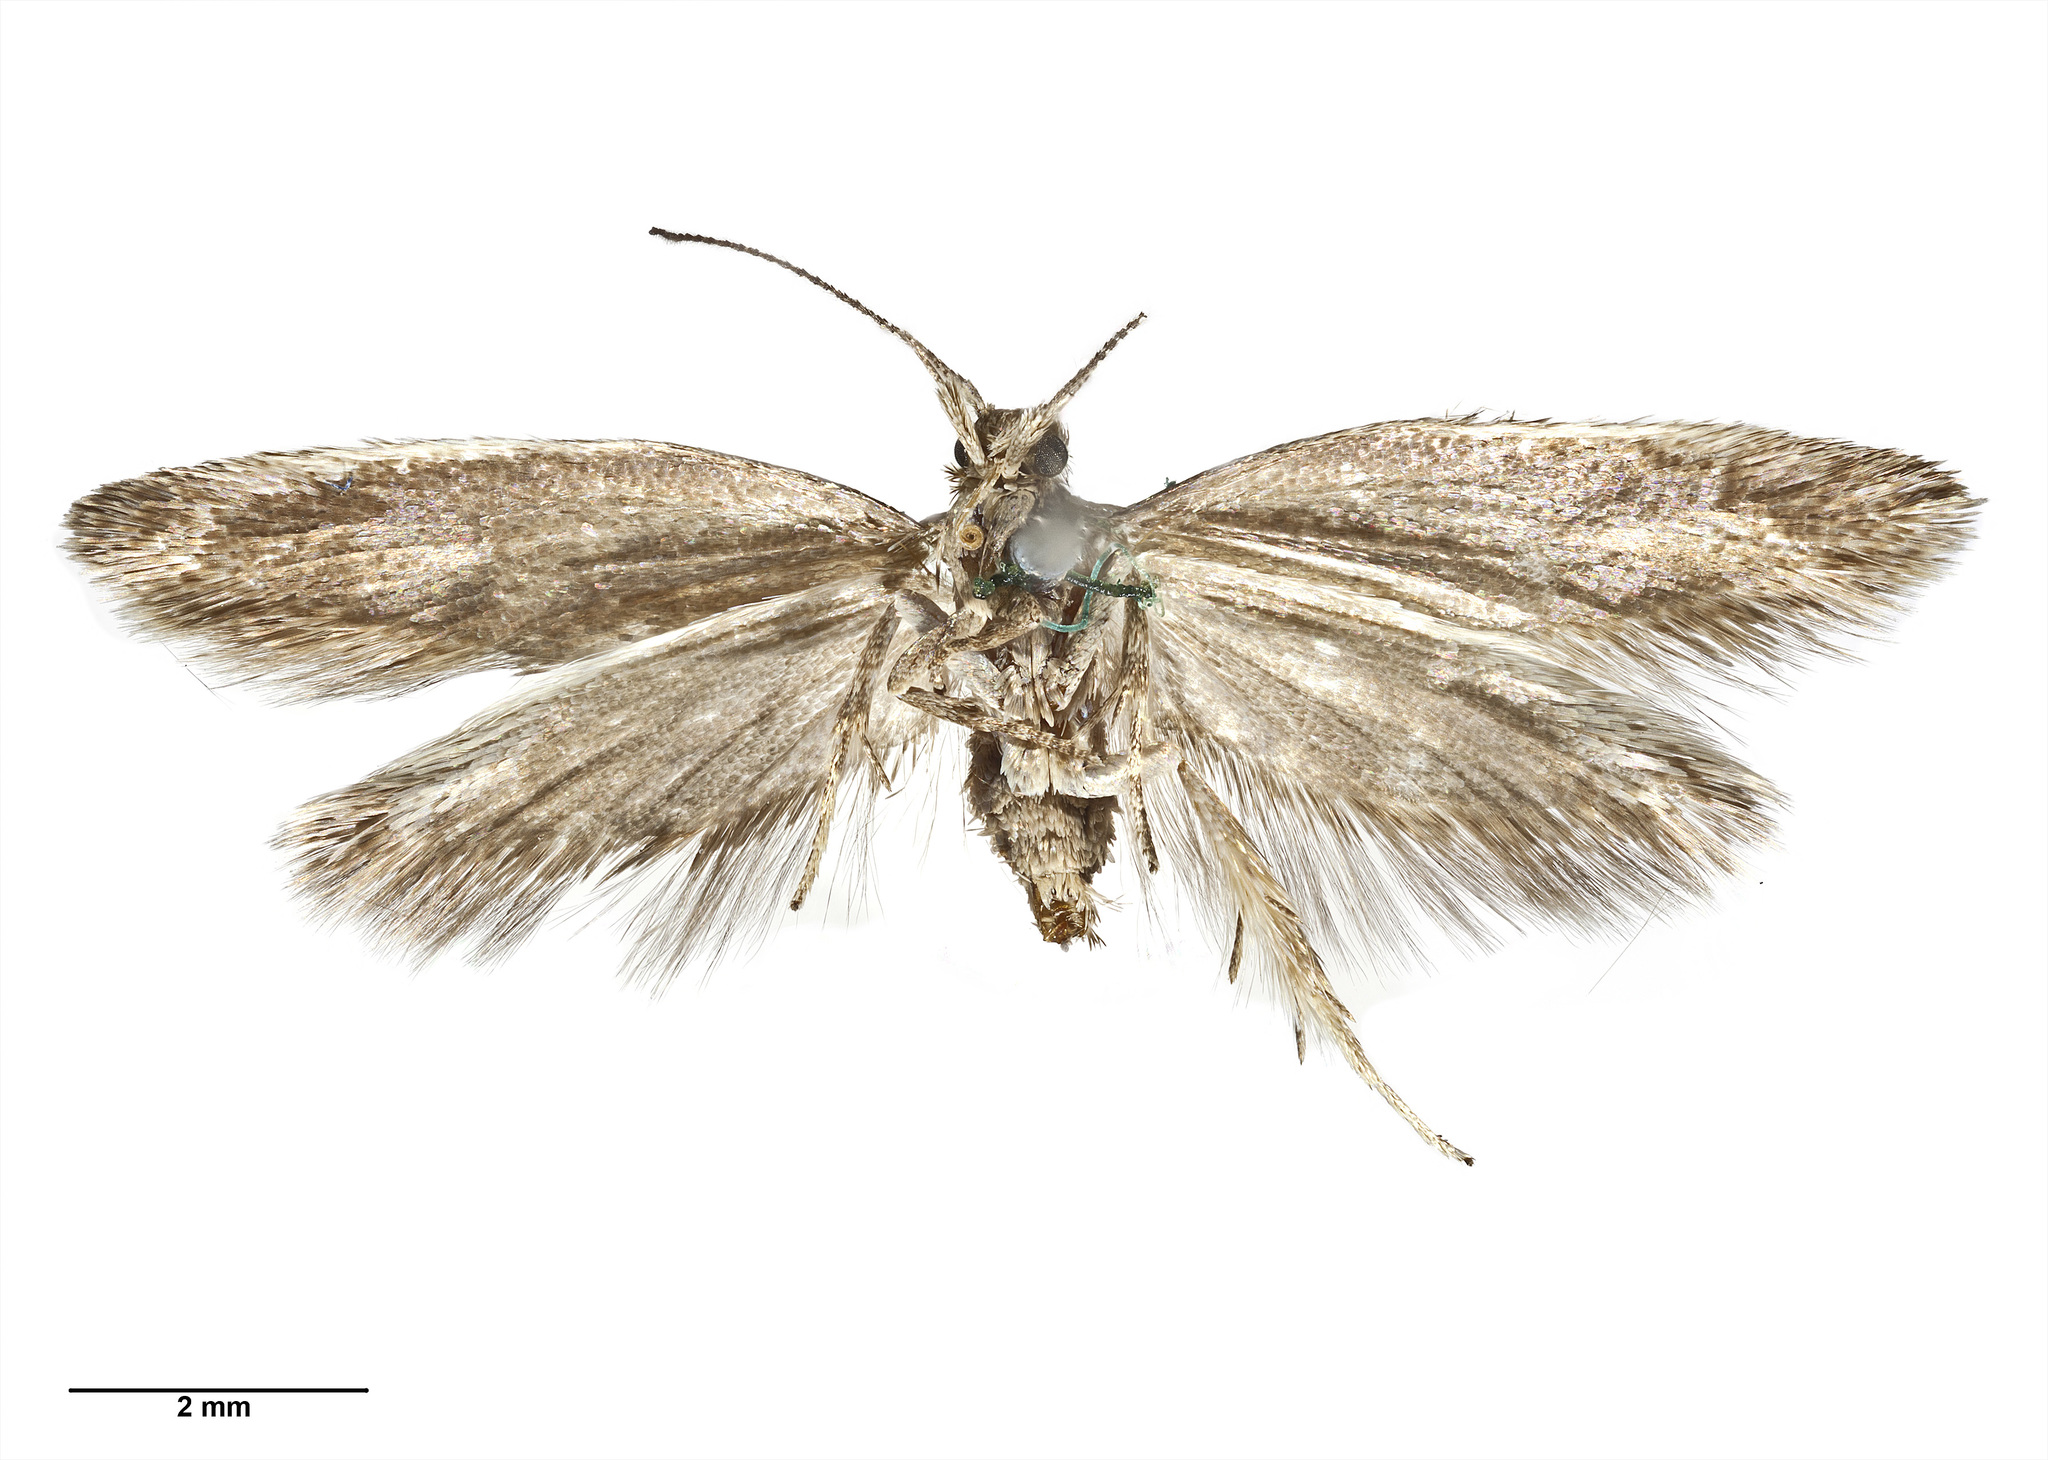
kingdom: Animalia
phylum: Arthropoda
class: Insecta
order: Lepidoptera
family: Oecophoridae
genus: Tingena
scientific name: Tingena levicula
